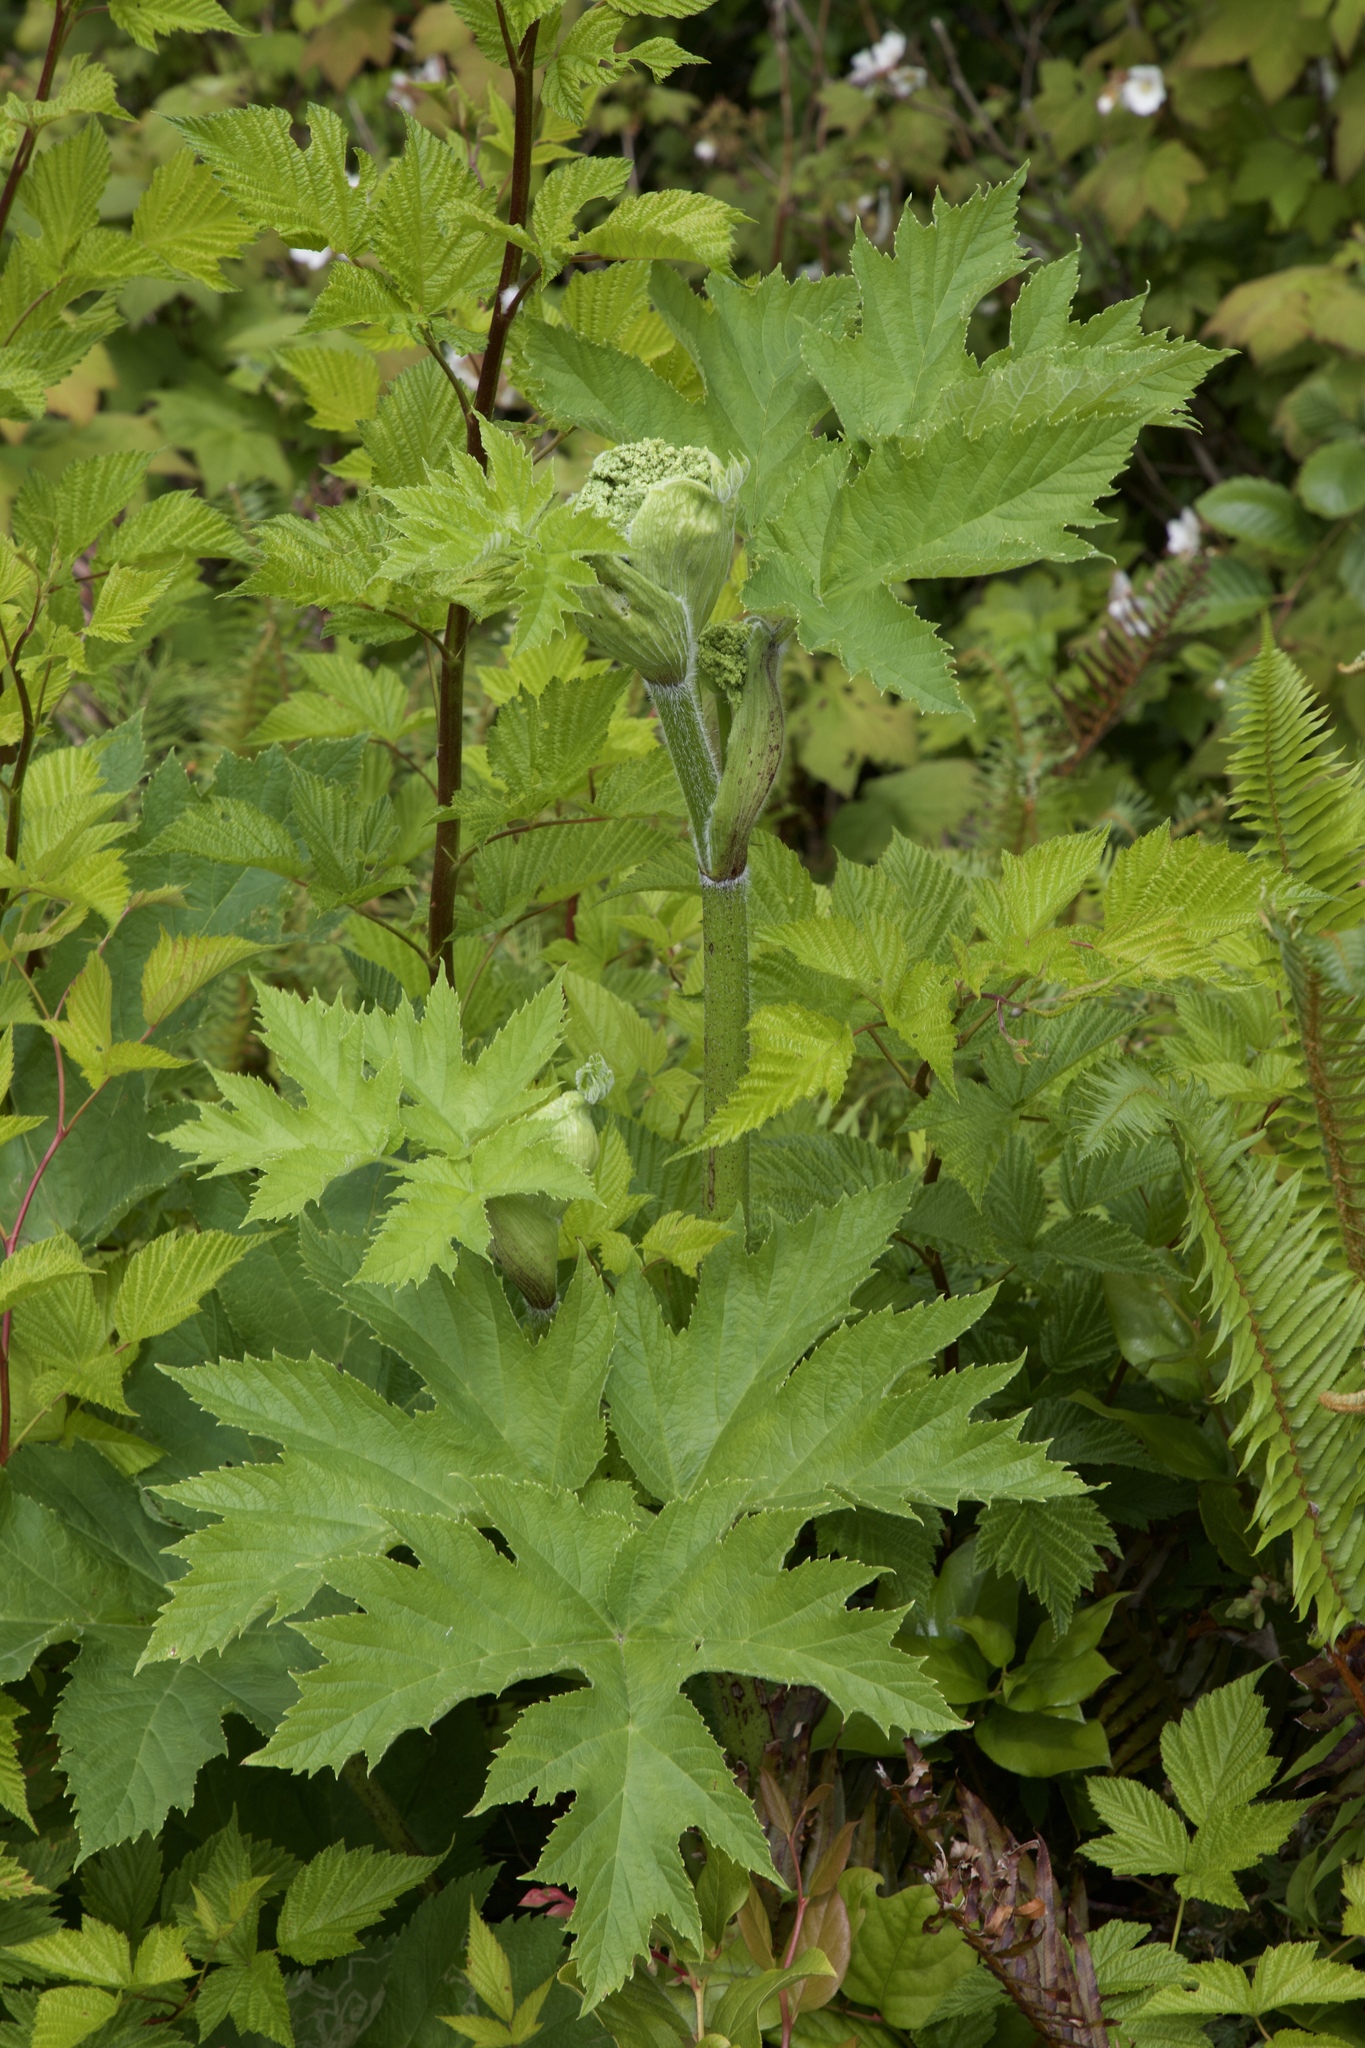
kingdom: Plantae
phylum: Tracheophyta
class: Magnoliopsida
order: Apiales
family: Apiaceae
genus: Heracleum
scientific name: Heracleum maximum
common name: American cow parsnip
